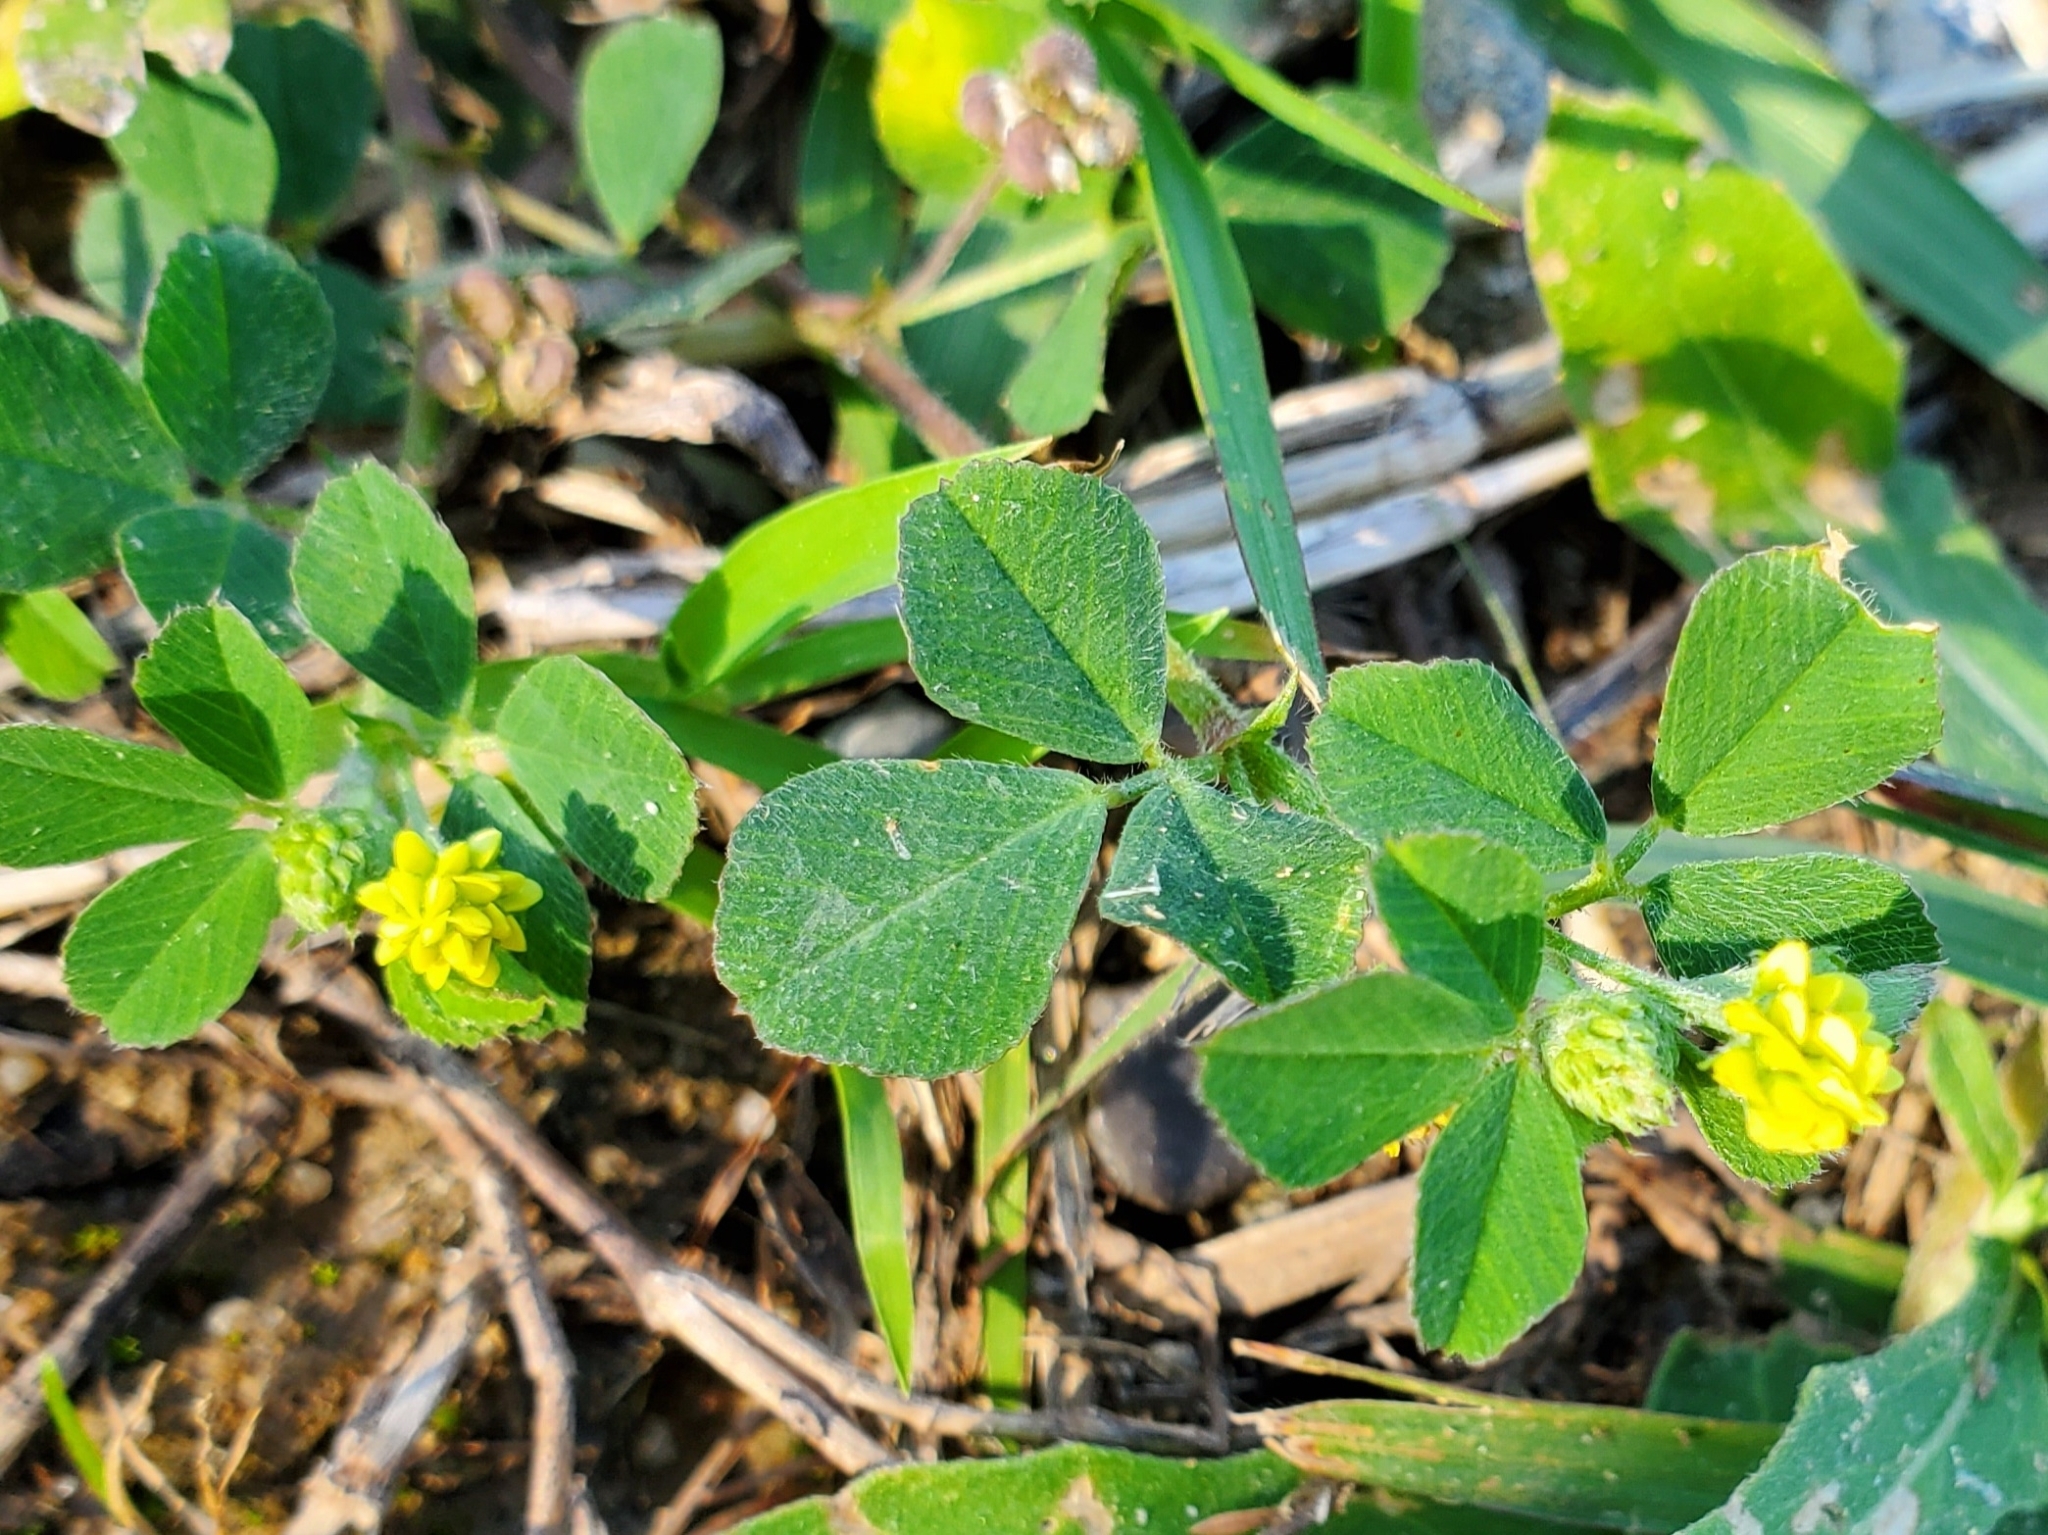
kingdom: Plantae
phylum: Tracheophyta
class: Magnoliopsida
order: Fabales
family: Fabaceae
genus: Medicago
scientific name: Medicago lupulina
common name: Black medick
